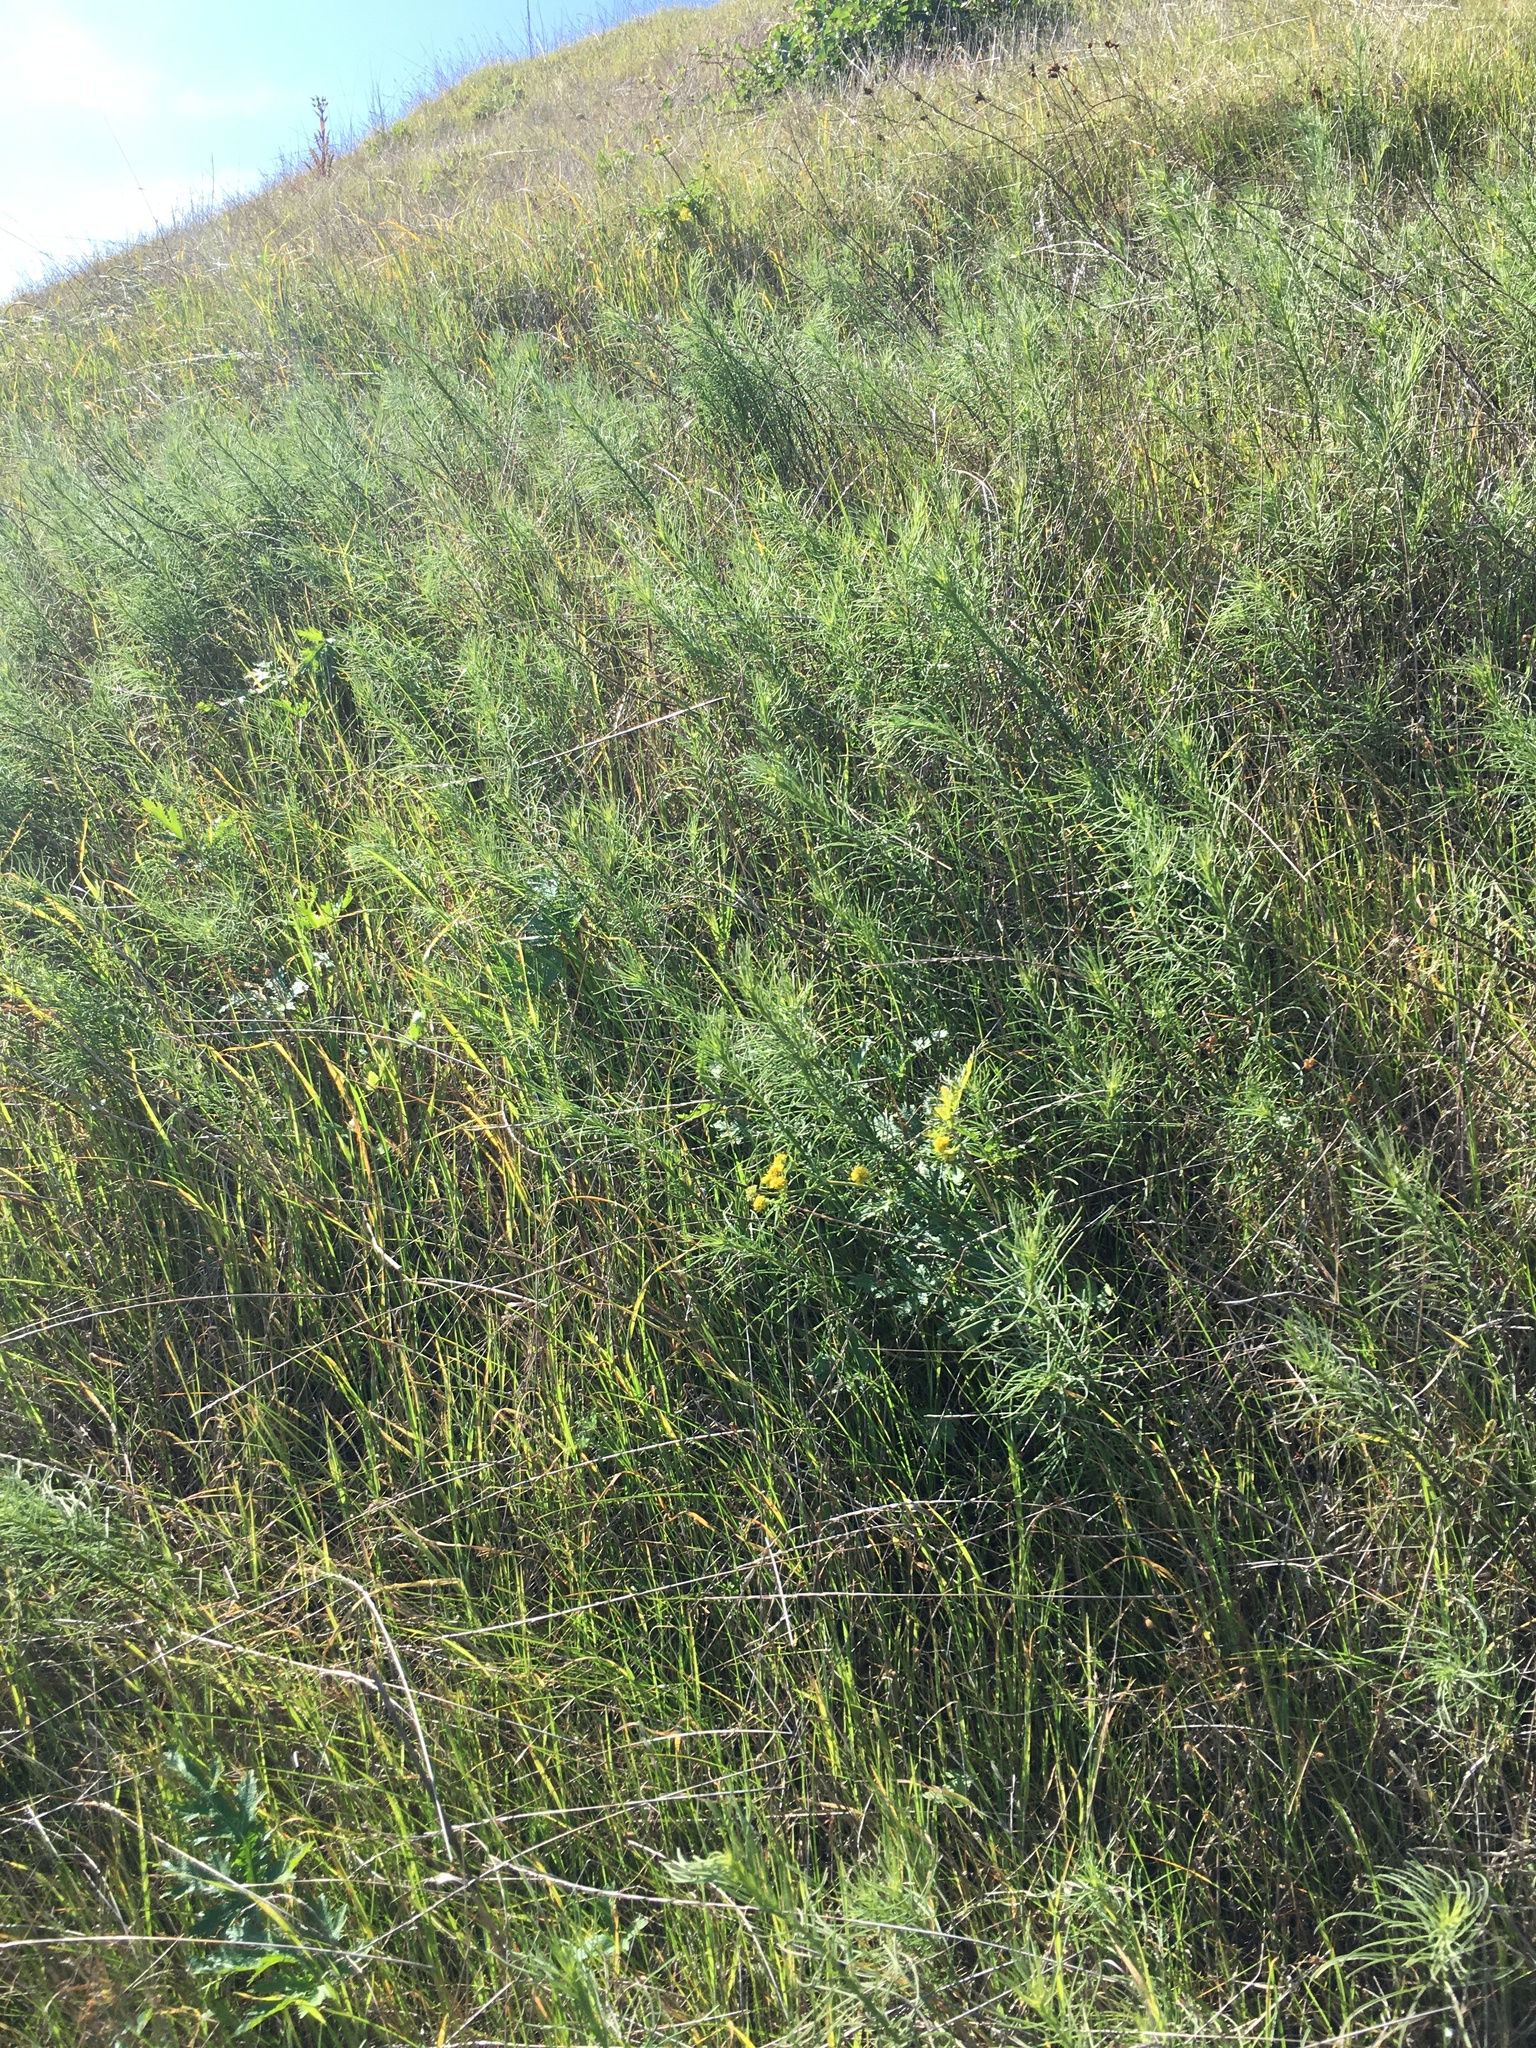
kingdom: Plantae
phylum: Tracheophyta
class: Magnoliopsida
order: Asterales
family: Asteraceae
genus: Erigeron
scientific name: Erigeron foliosus
